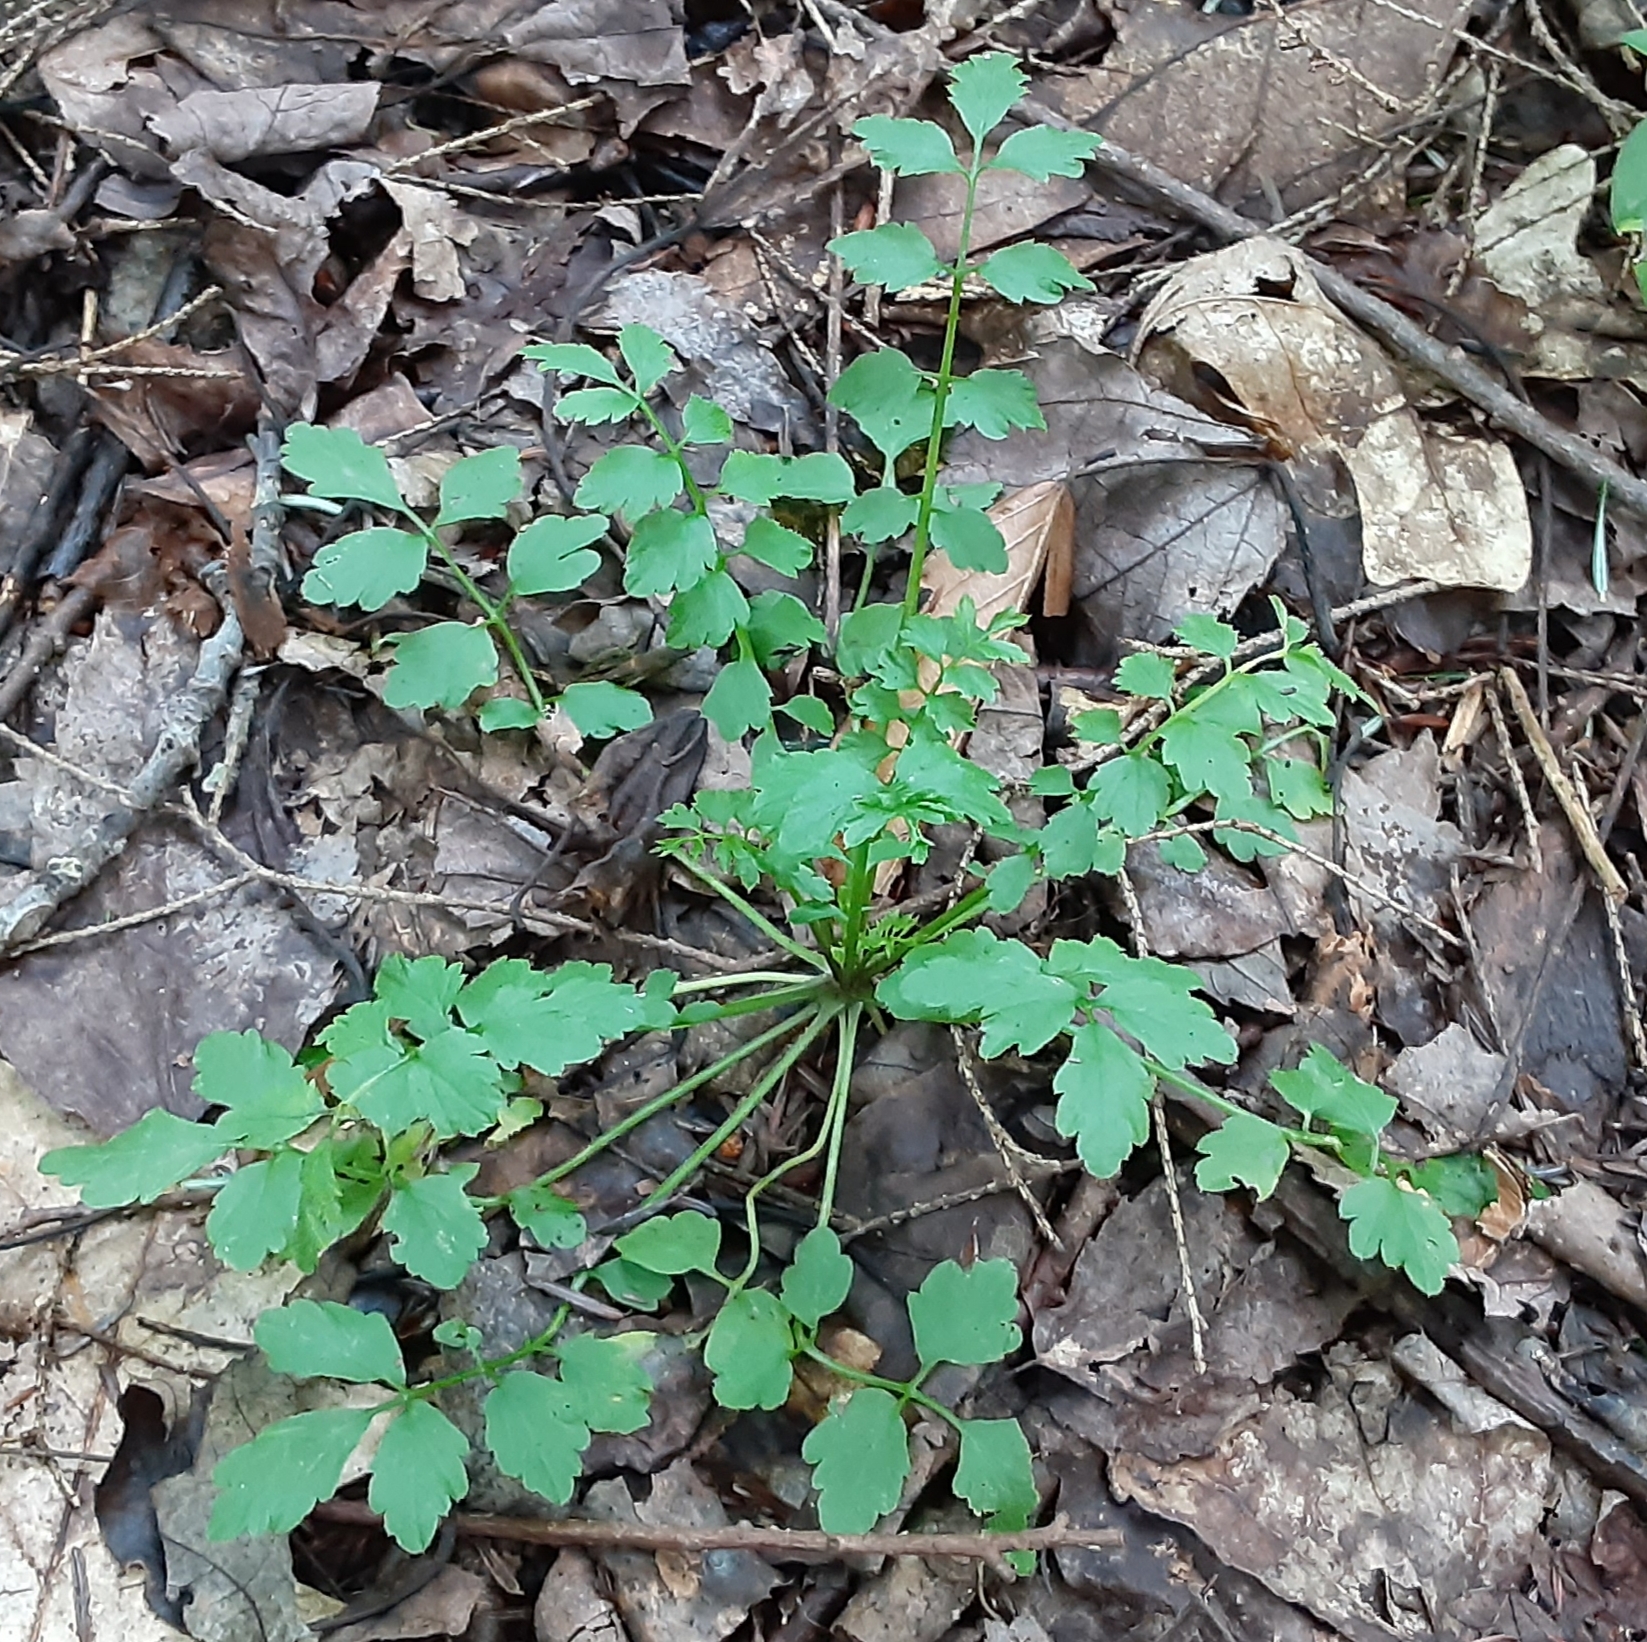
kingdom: Plantae
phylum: Tracheophyta
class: Magnoliopsida
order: Brassicales
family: Brassicaceae
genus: Cardamine
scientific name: Cardamine impatiens
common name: Narrow-leaved bitter-cress
